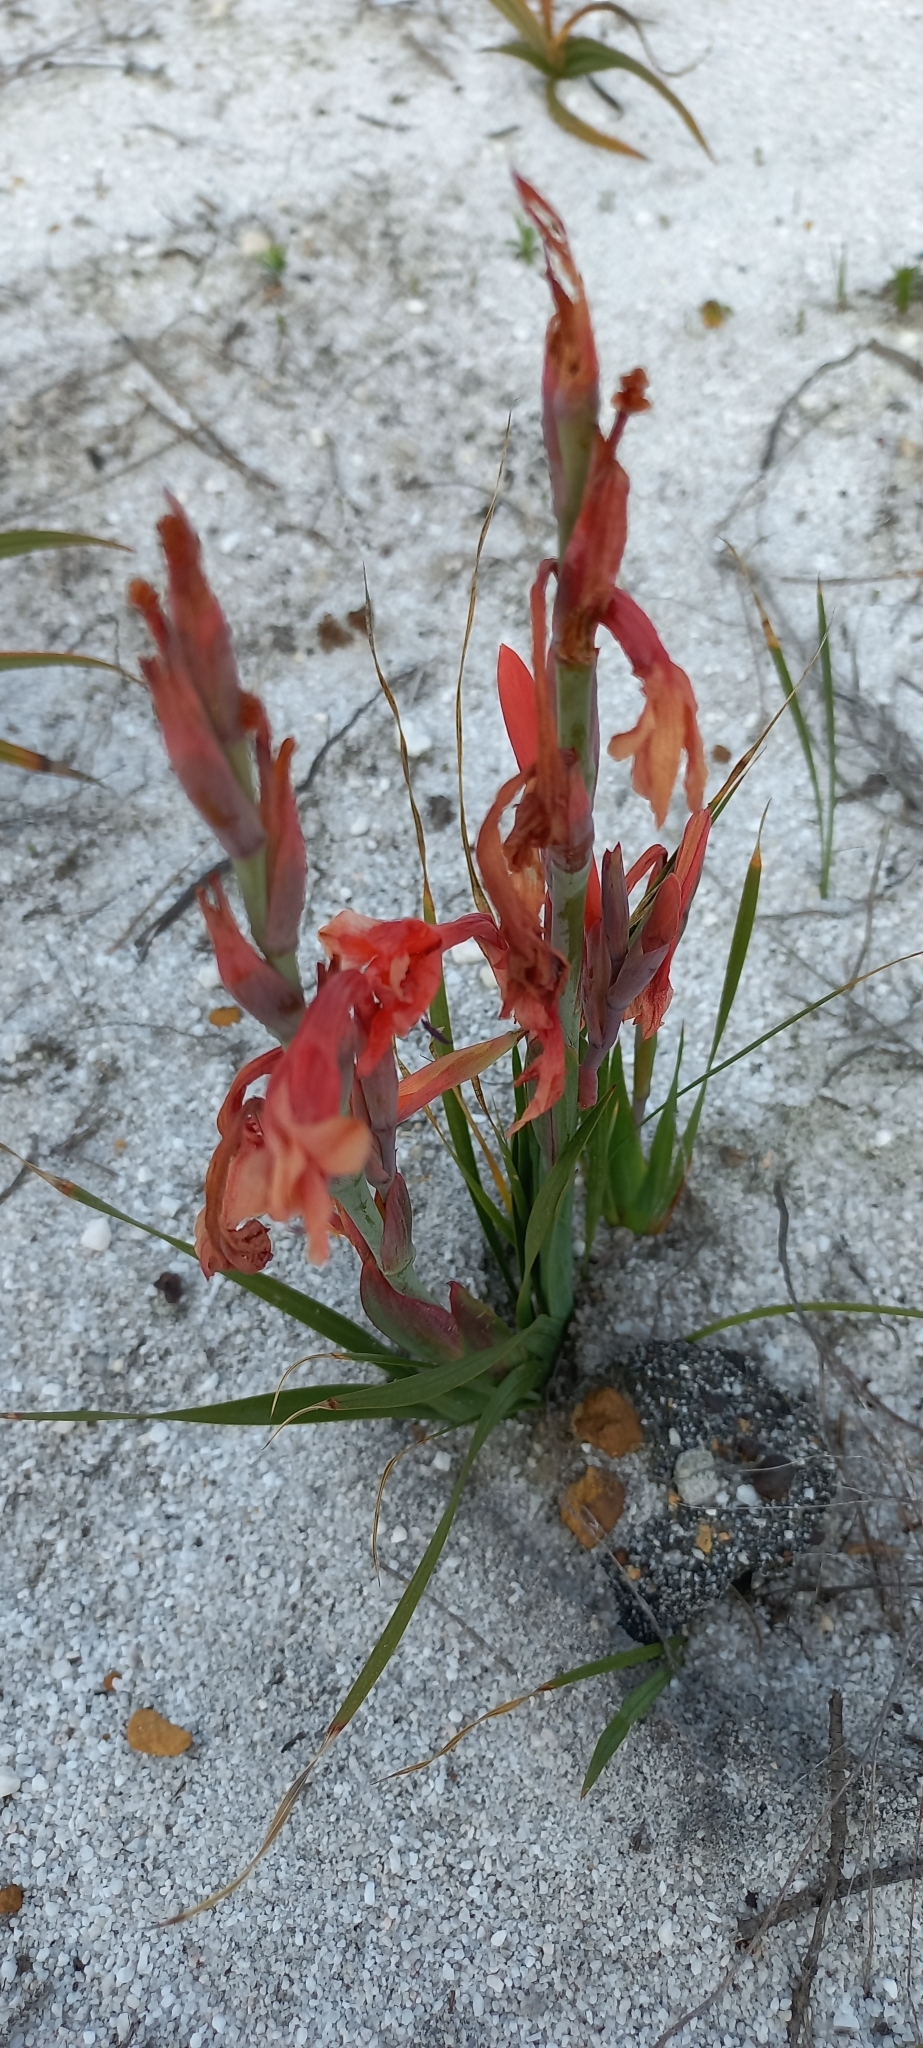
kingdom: Plantae
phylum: Tracheophyta
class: Liliopsida
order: Asparagales
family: Iridaceae
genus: Watsonia
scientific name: Watsonia coccinea
